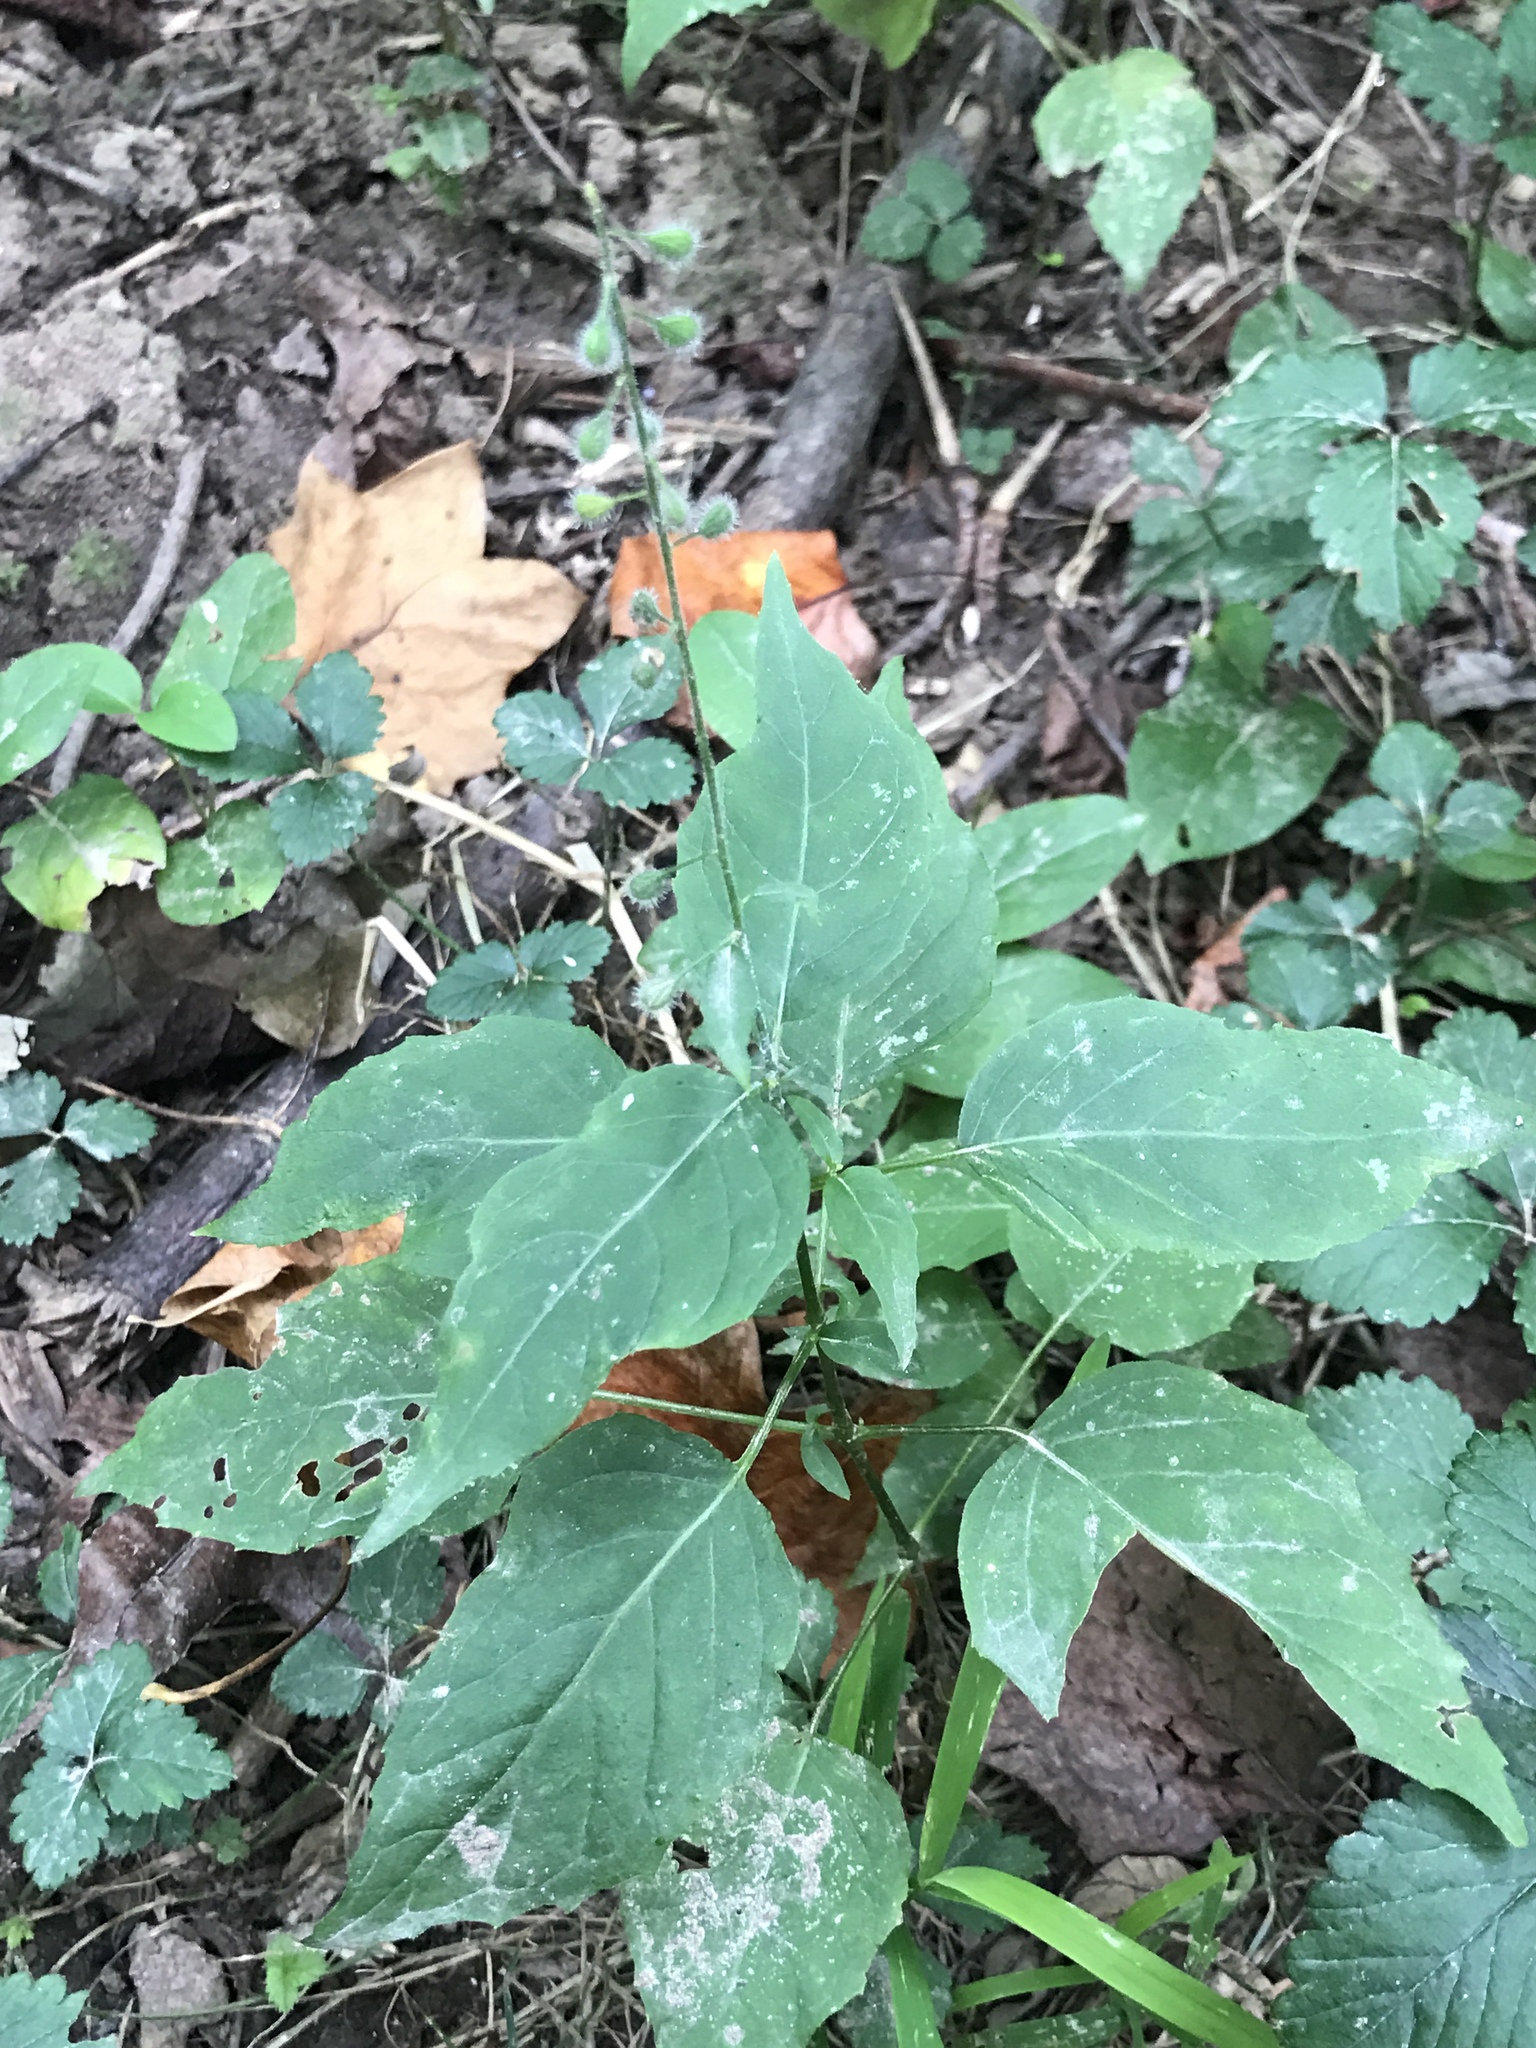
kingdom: Plantae
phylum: Tracheophyta
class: Magnoliopsida
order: Myrtales
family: Onagraceae
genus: Circaea
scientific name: Circaea canadensis
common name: Broad-leaved enchanter's nightshade
